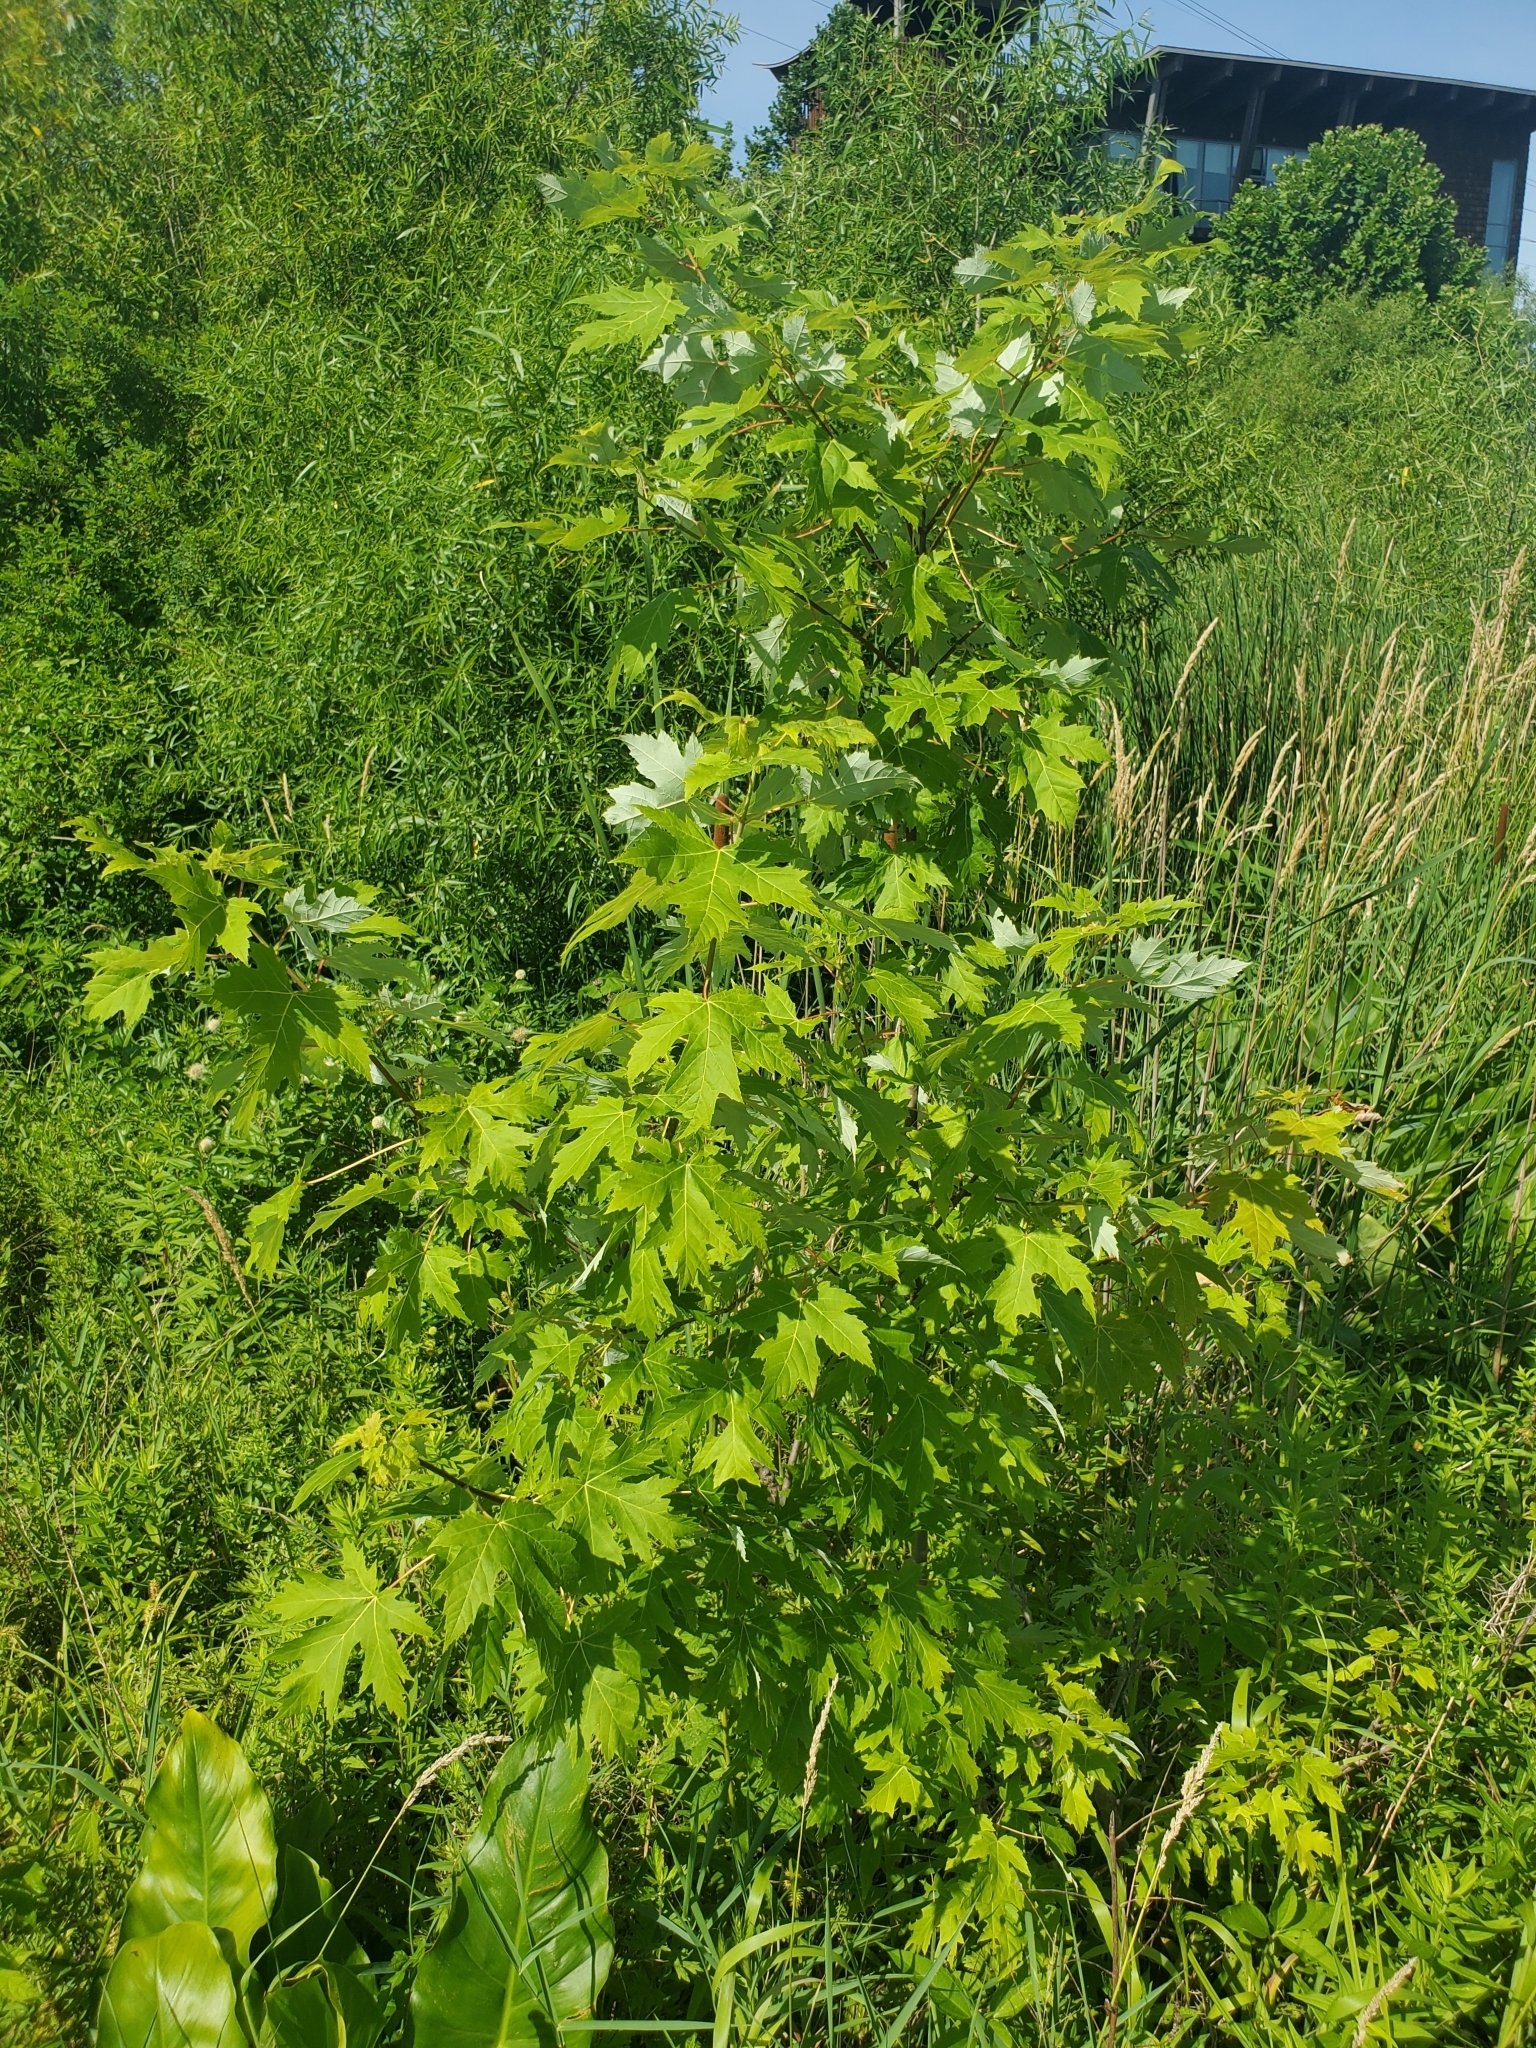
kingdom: Plantae
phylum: Tracheophyta
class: Magnoliopsida
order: Sapindales
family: Sapindaceae
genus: Acer
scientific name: Acer saccharinum
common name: Silver maple
